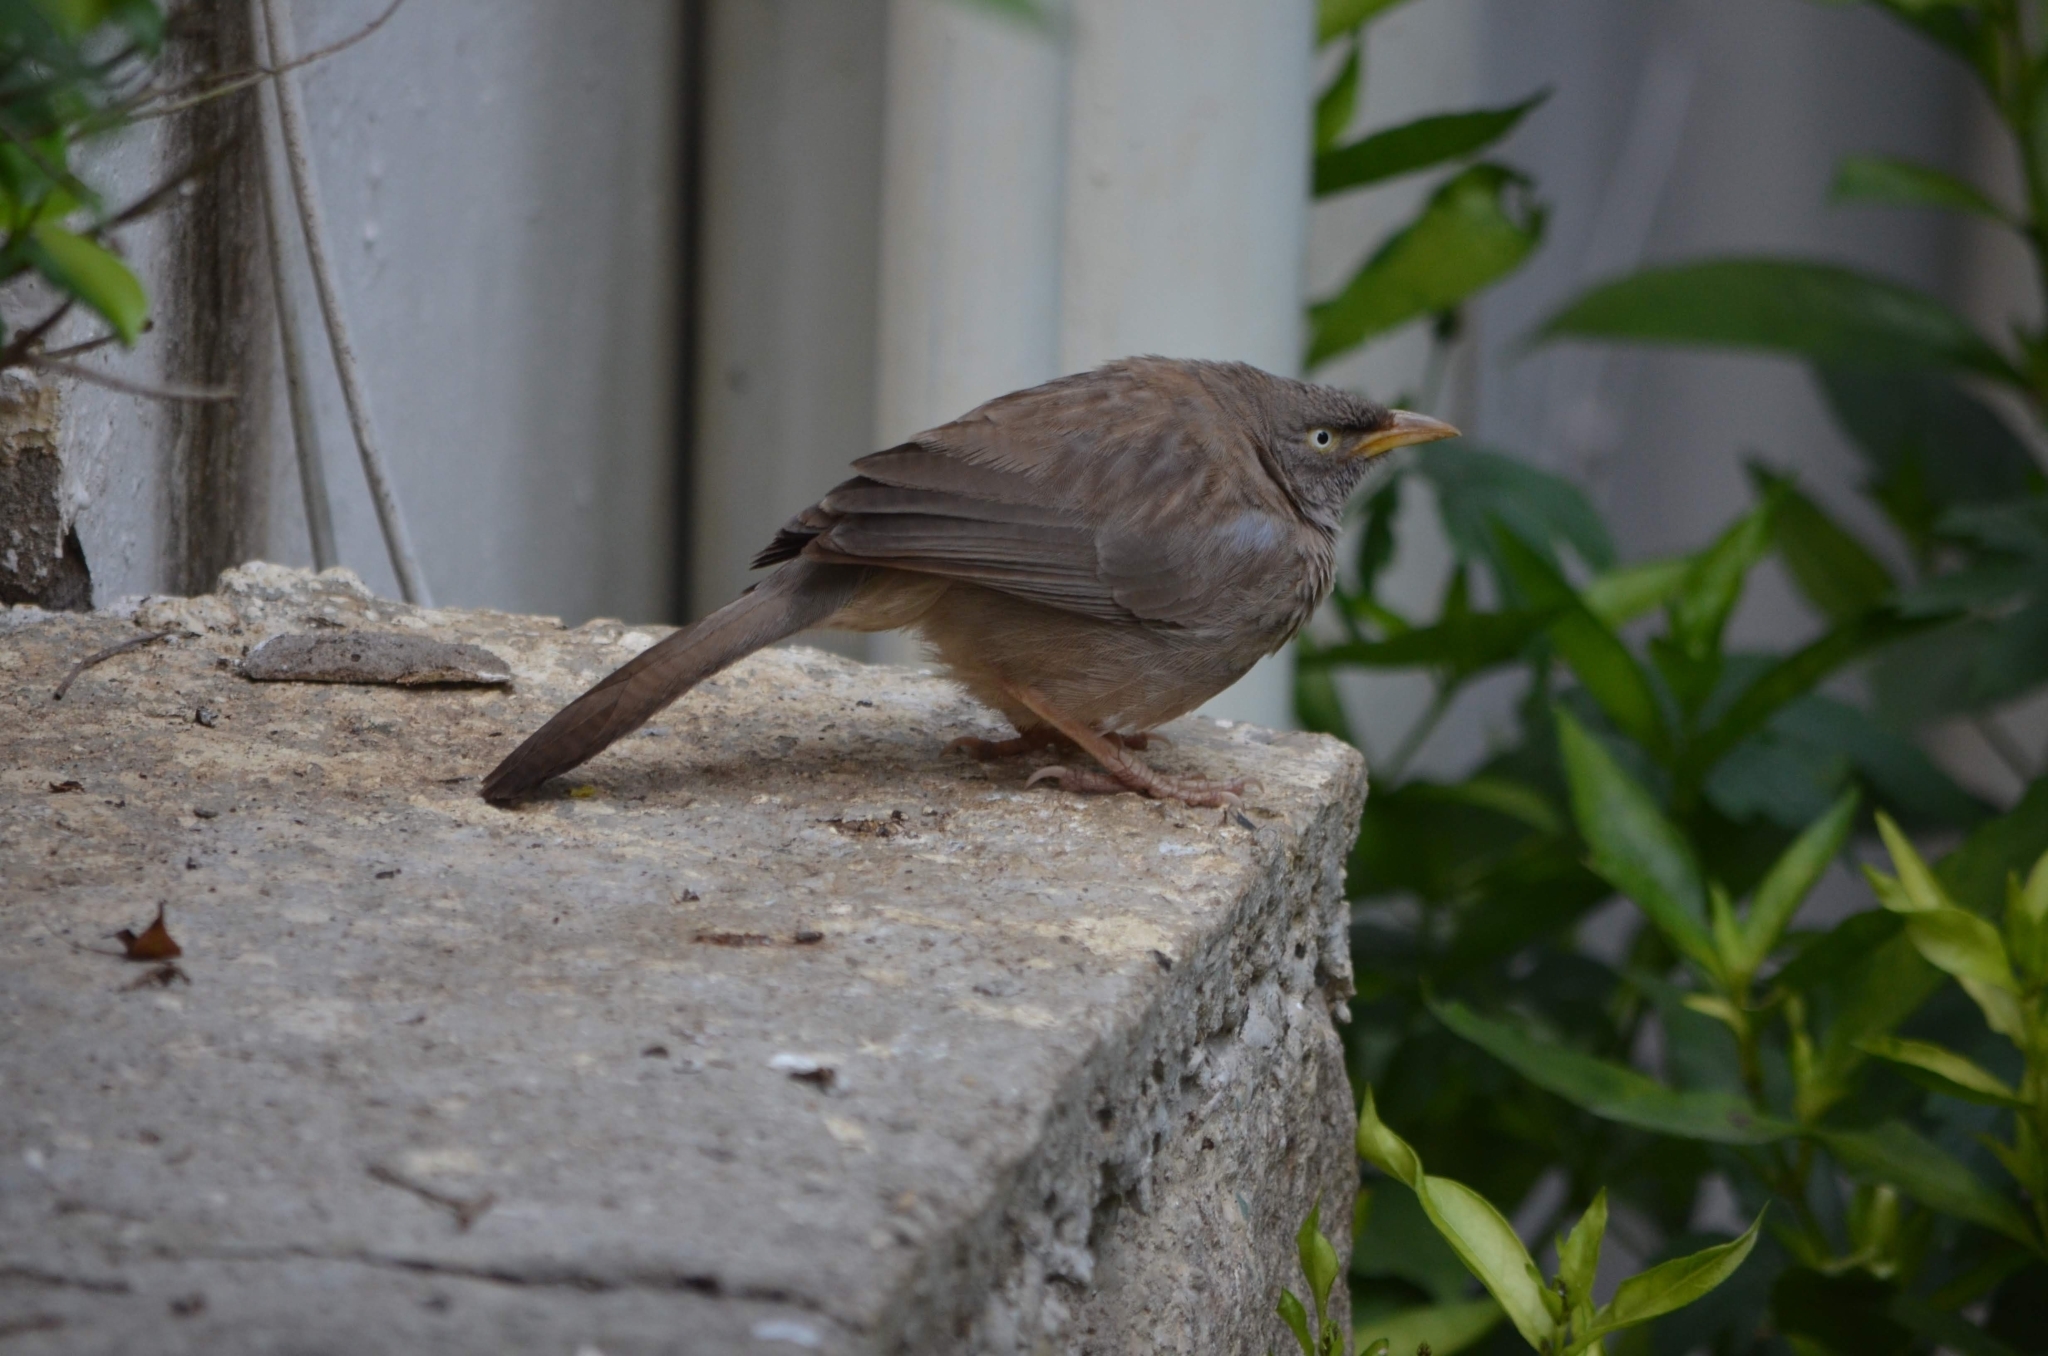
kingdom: Animalia
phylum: Chordata
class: Aves
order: Passeriformes
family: Leiothrichidae
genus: Turdoides
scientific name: Turdoides striata
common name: Jungle babbler
